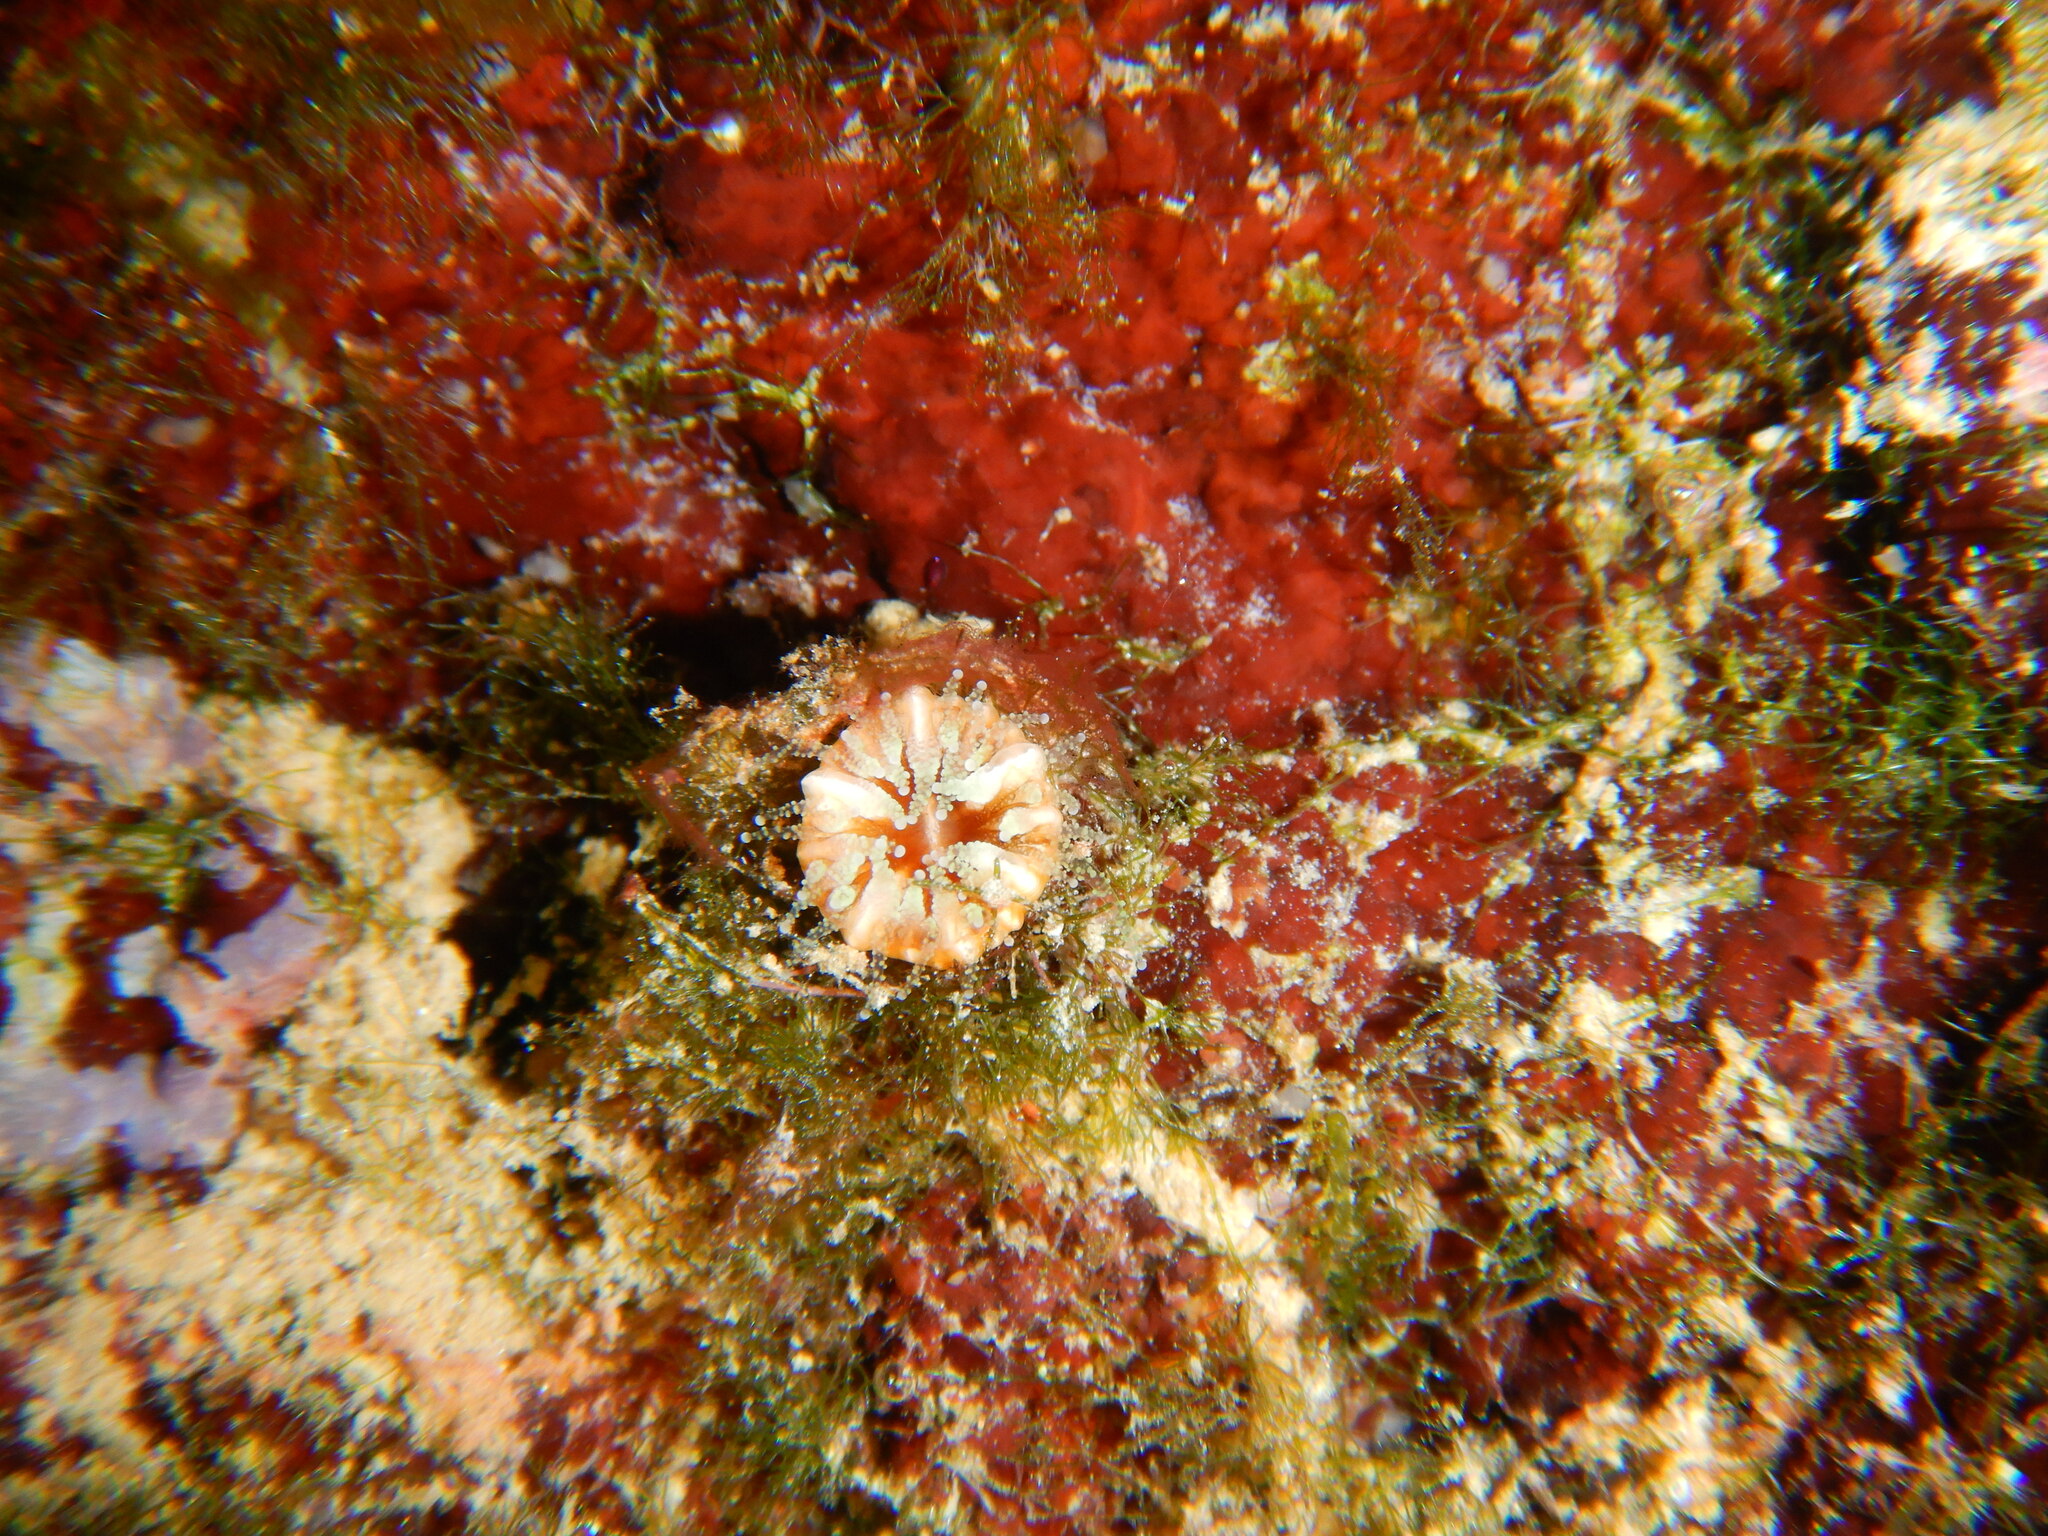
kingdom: Animalia
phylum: Cnidaria
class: Anthozoa
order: Scleractinia
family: Caryophylliidae
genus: Polycyathus
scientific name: Polycyathus muellerae
